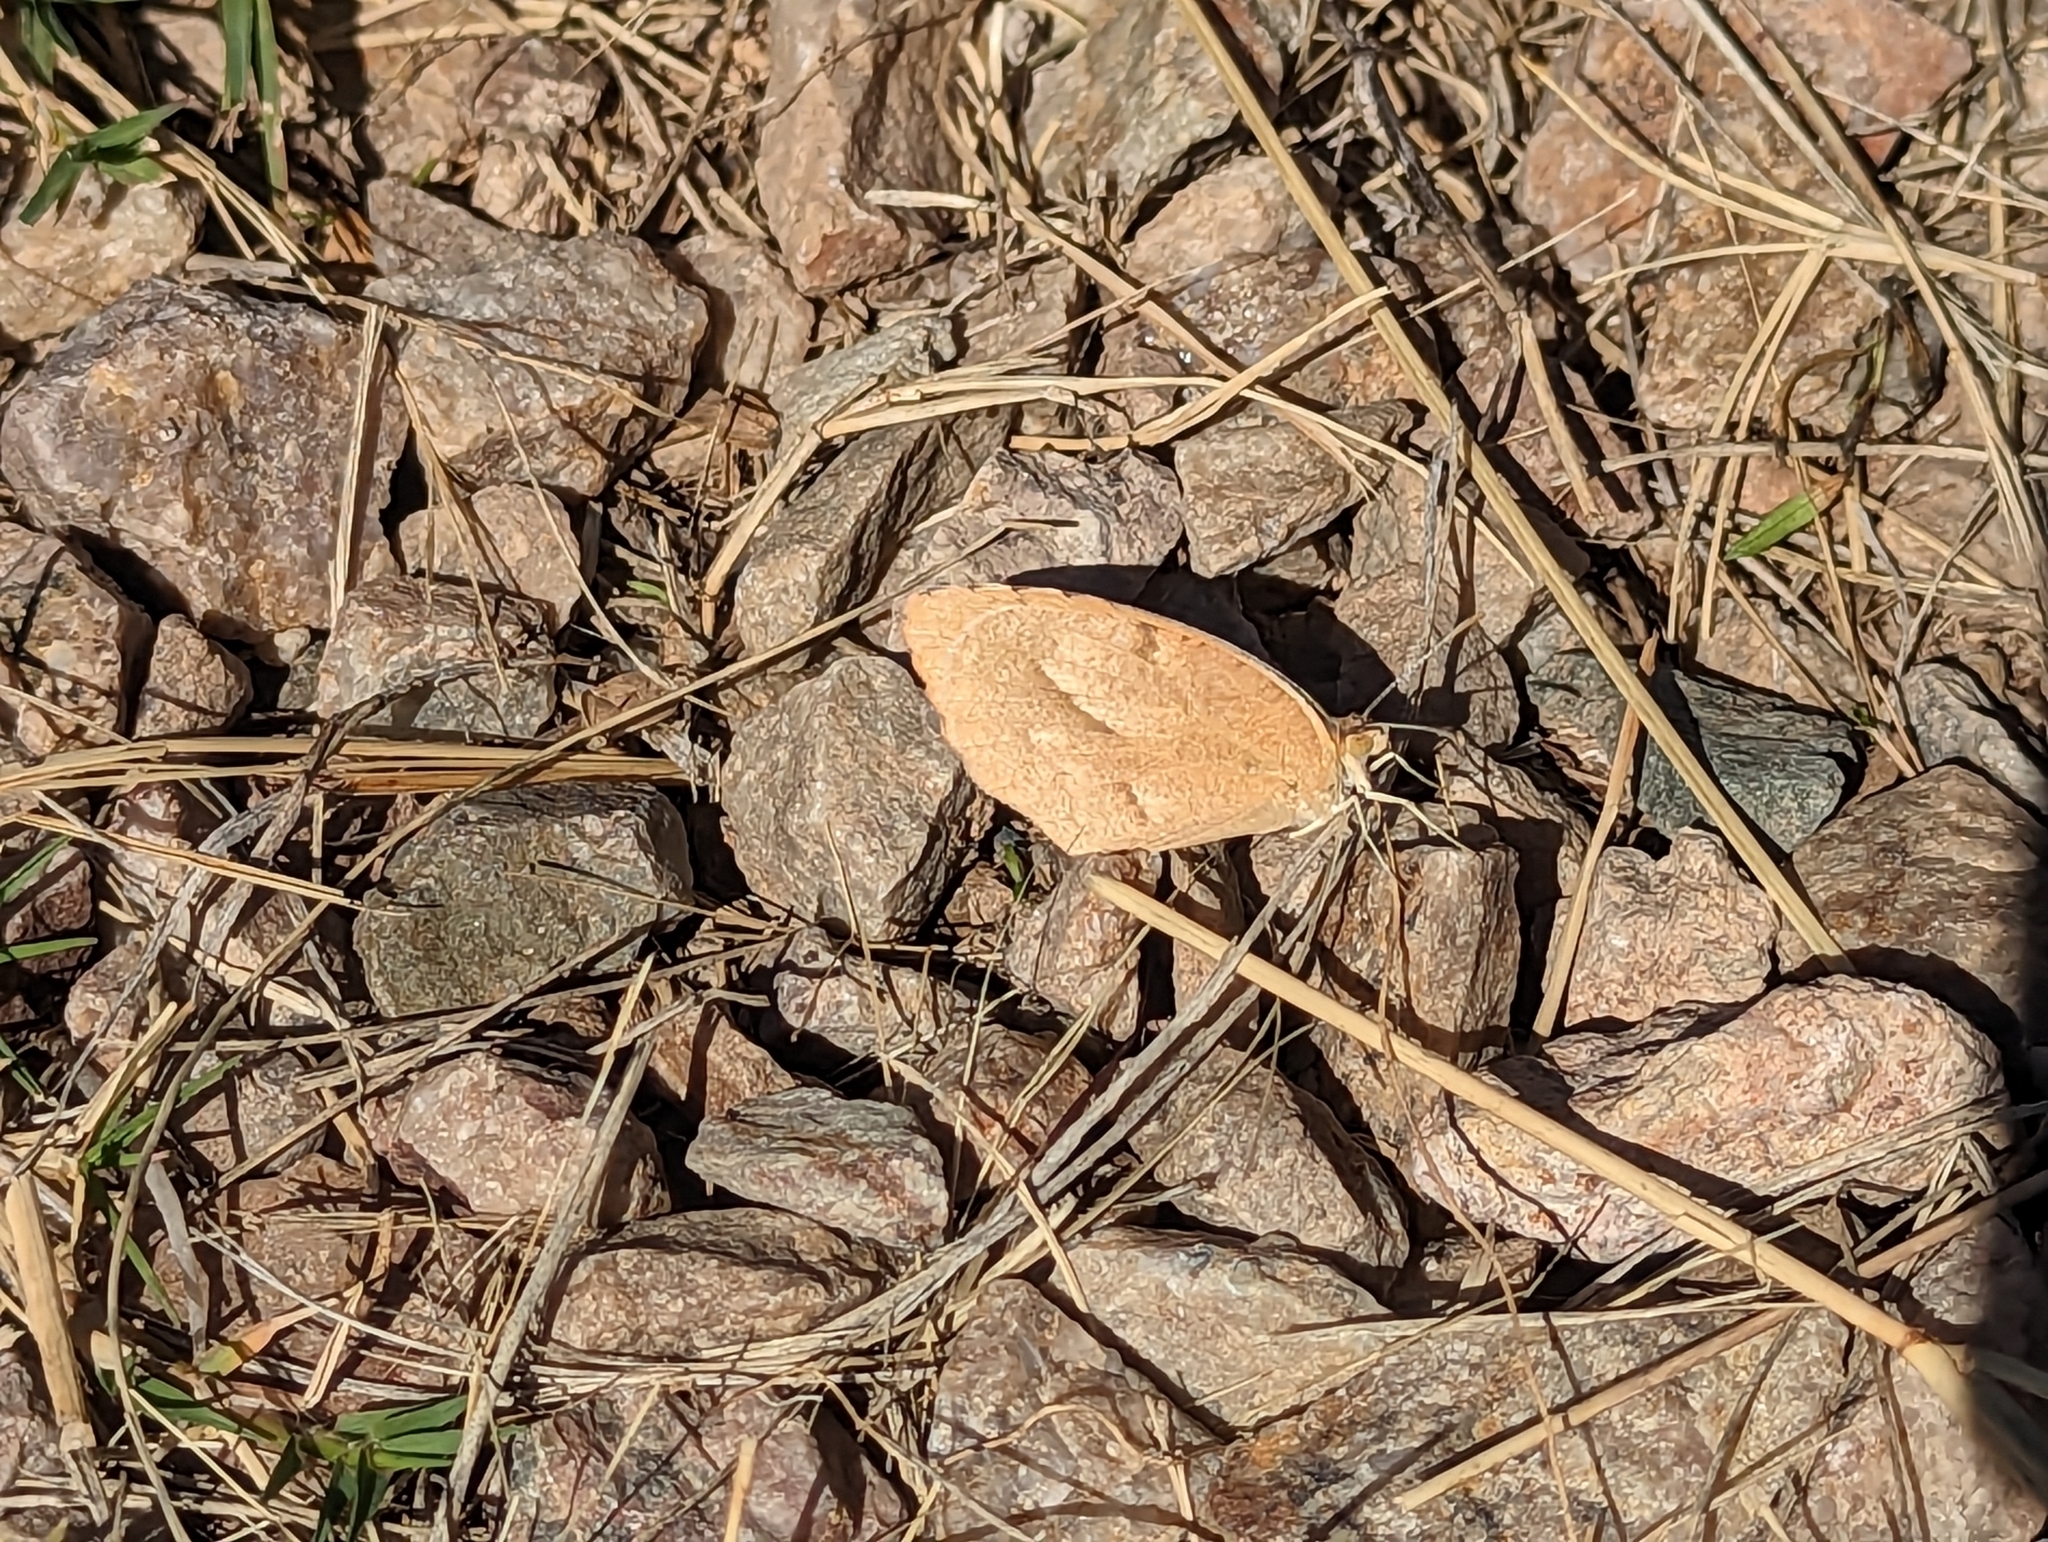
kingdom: Animalia
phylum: Arthropoda
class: Insecta
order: Lepidoptera
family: Pieridae
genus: Abaeis
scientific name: Abaeis nicippe
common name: Sleepy orange
